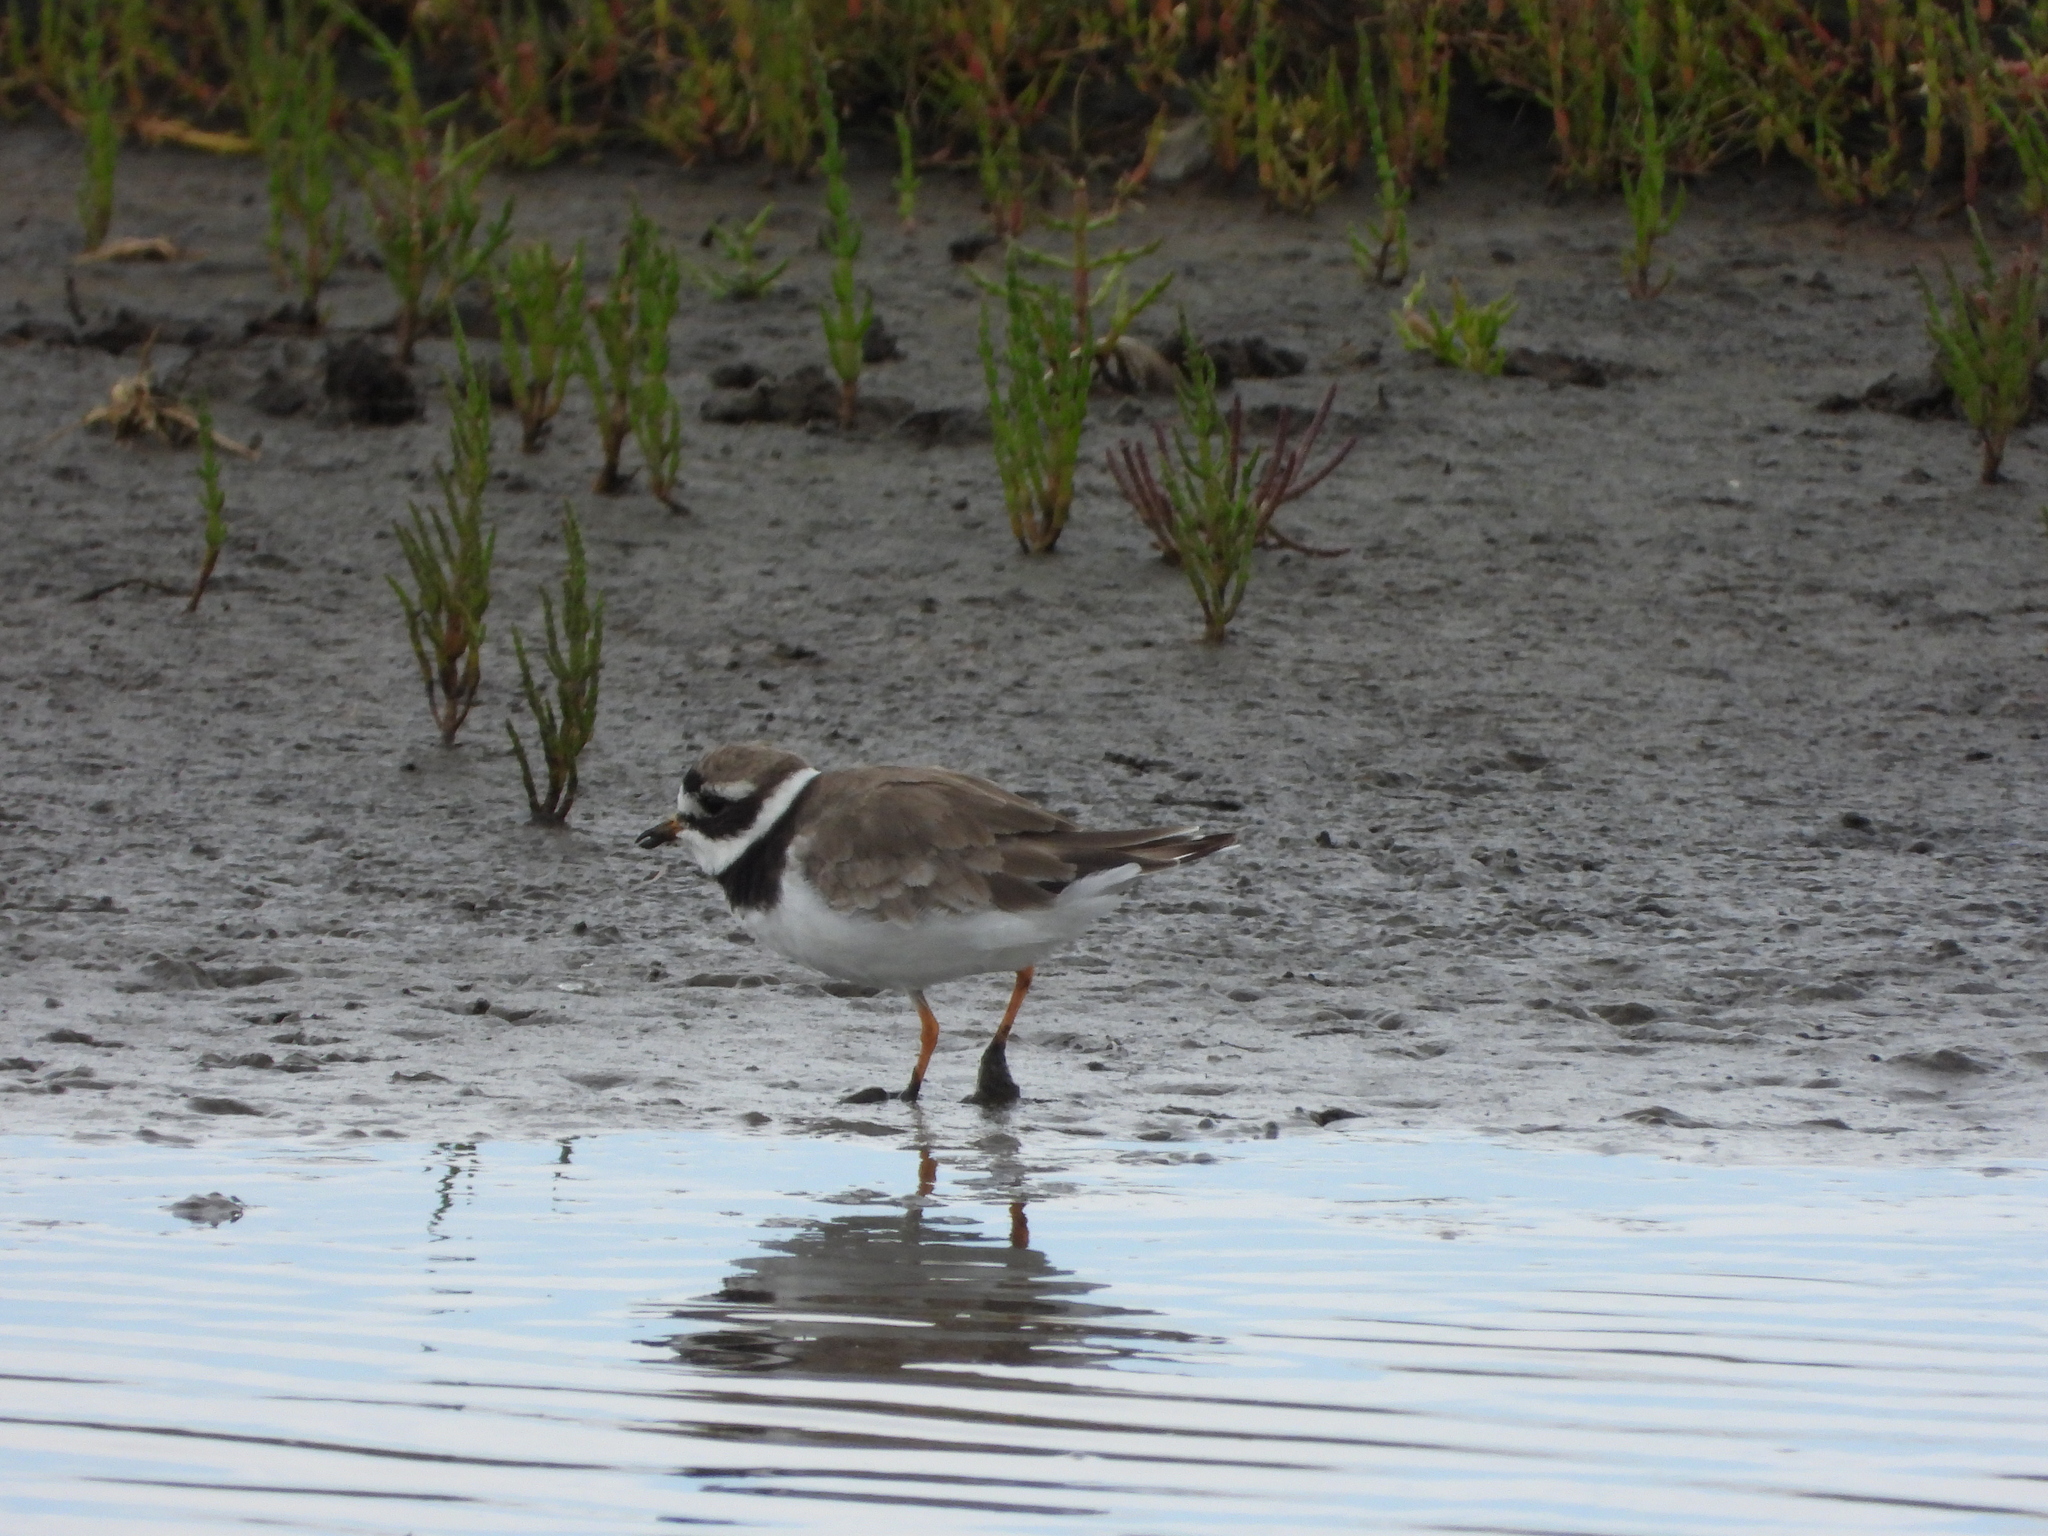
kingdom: Animalia
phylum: Chordata
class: Aves
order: Charadriiformes
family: Charadriidae
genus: Charadrius
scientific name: Charadrius hiaticula
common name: Common ringed plover
